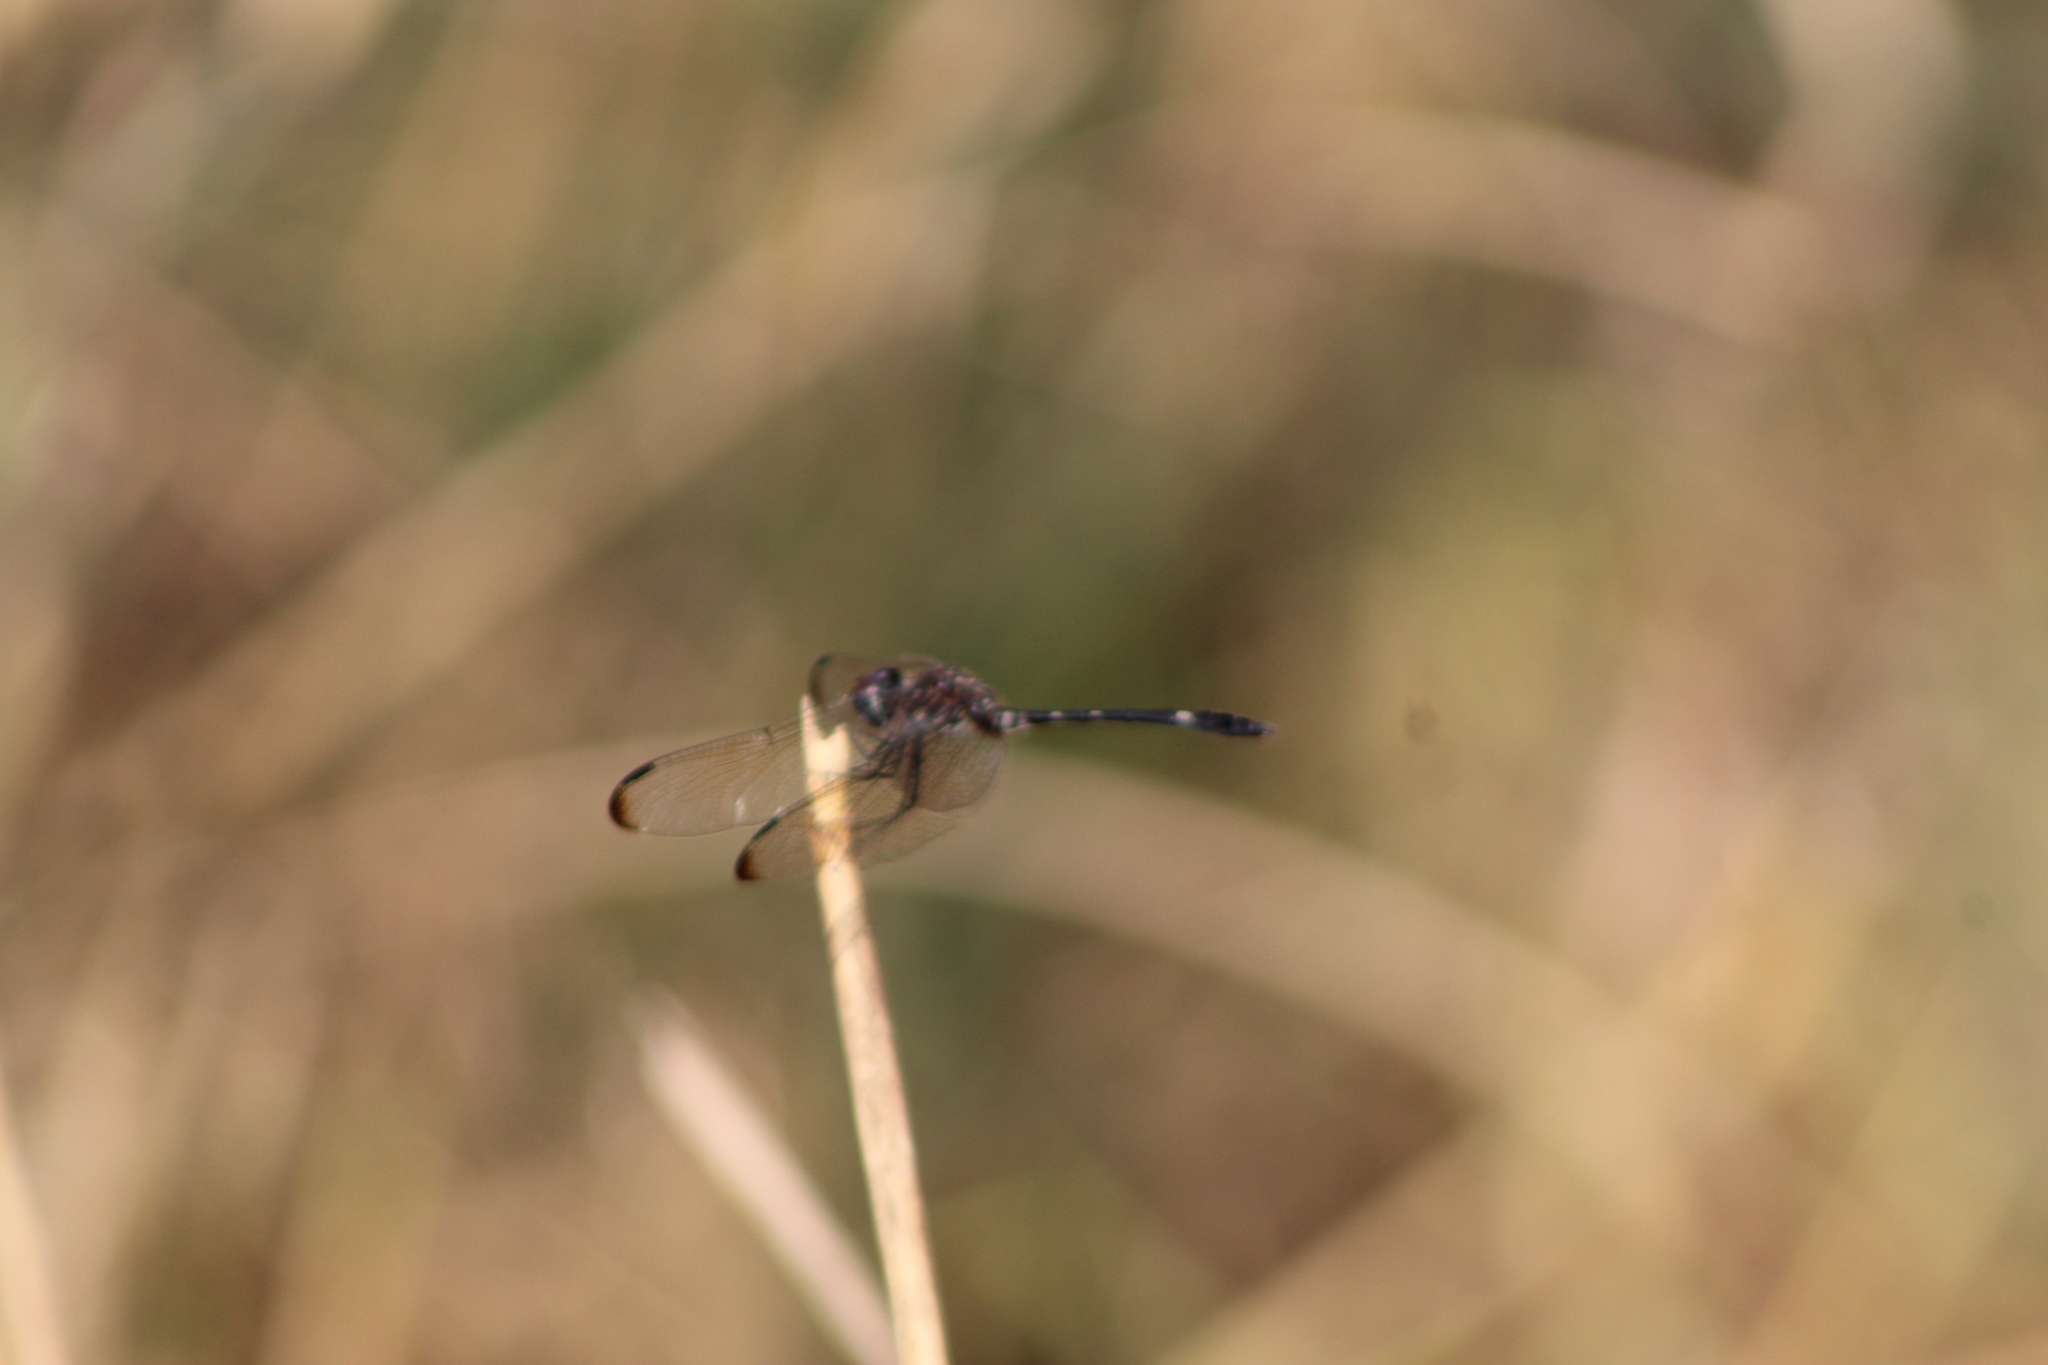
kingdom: Animalia
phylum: Arthropoda
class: Insecta
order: Odonata
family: Libellulidae
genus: Dythemis
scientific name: Dythemis velox
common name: Swift setwing
